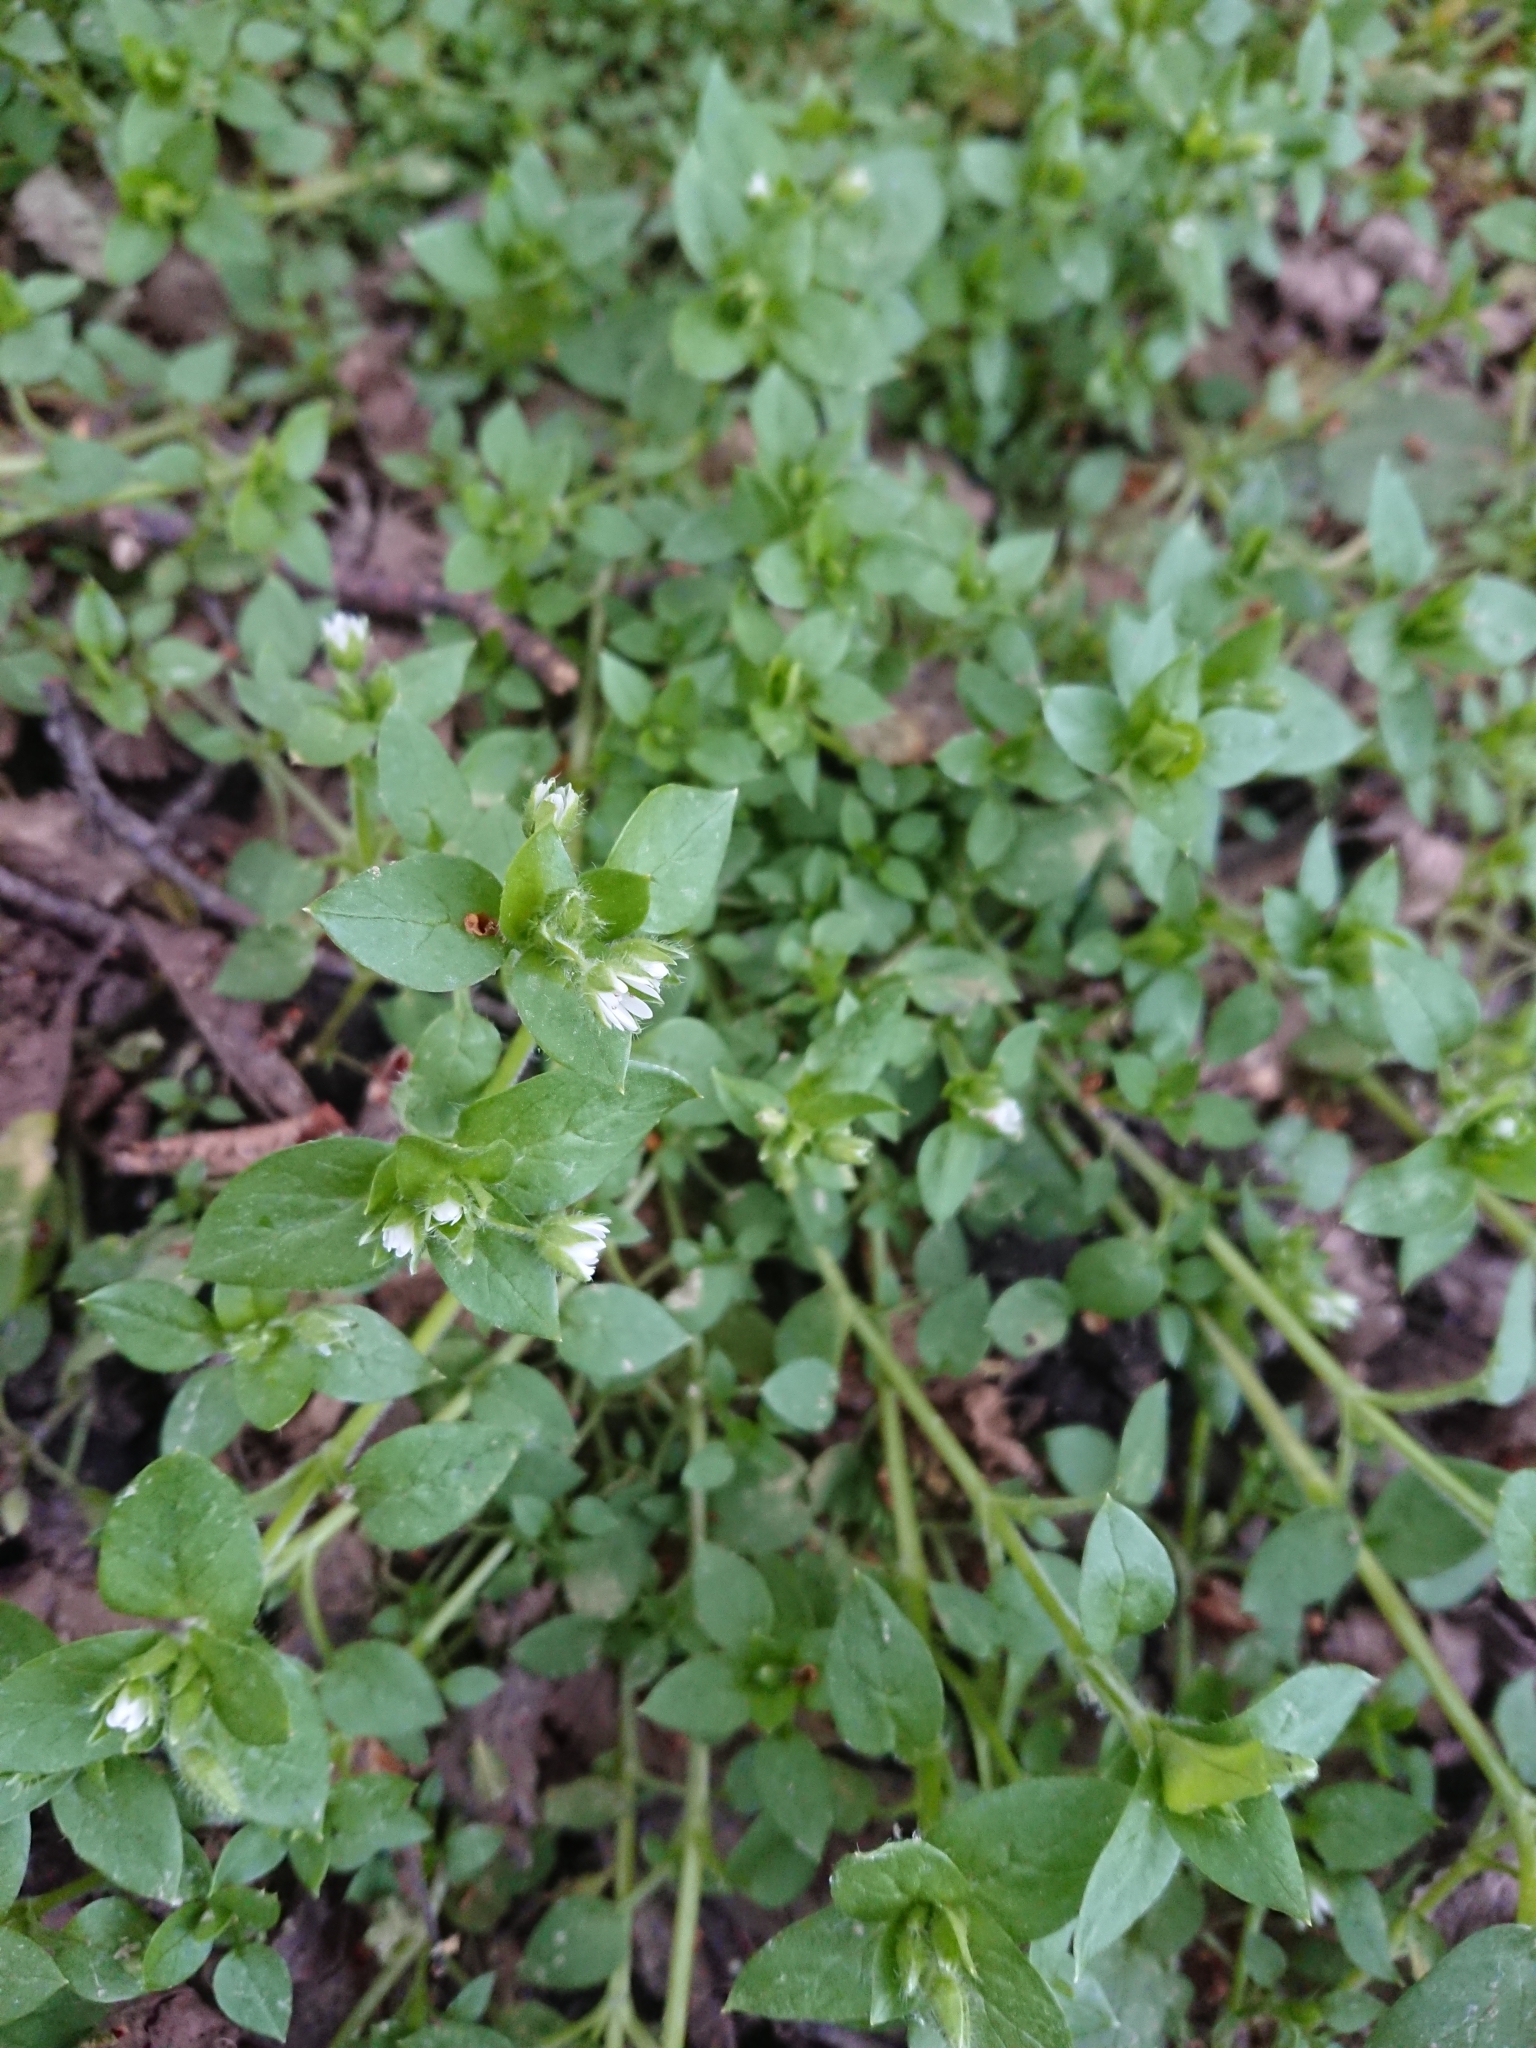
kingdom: Plantae
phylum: Tracheophyta
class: Magnoliopsida
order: Caryophyllales
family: Caryophyllaceae
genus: Stellaria
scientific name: Stellaria media
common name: Common chickweed
